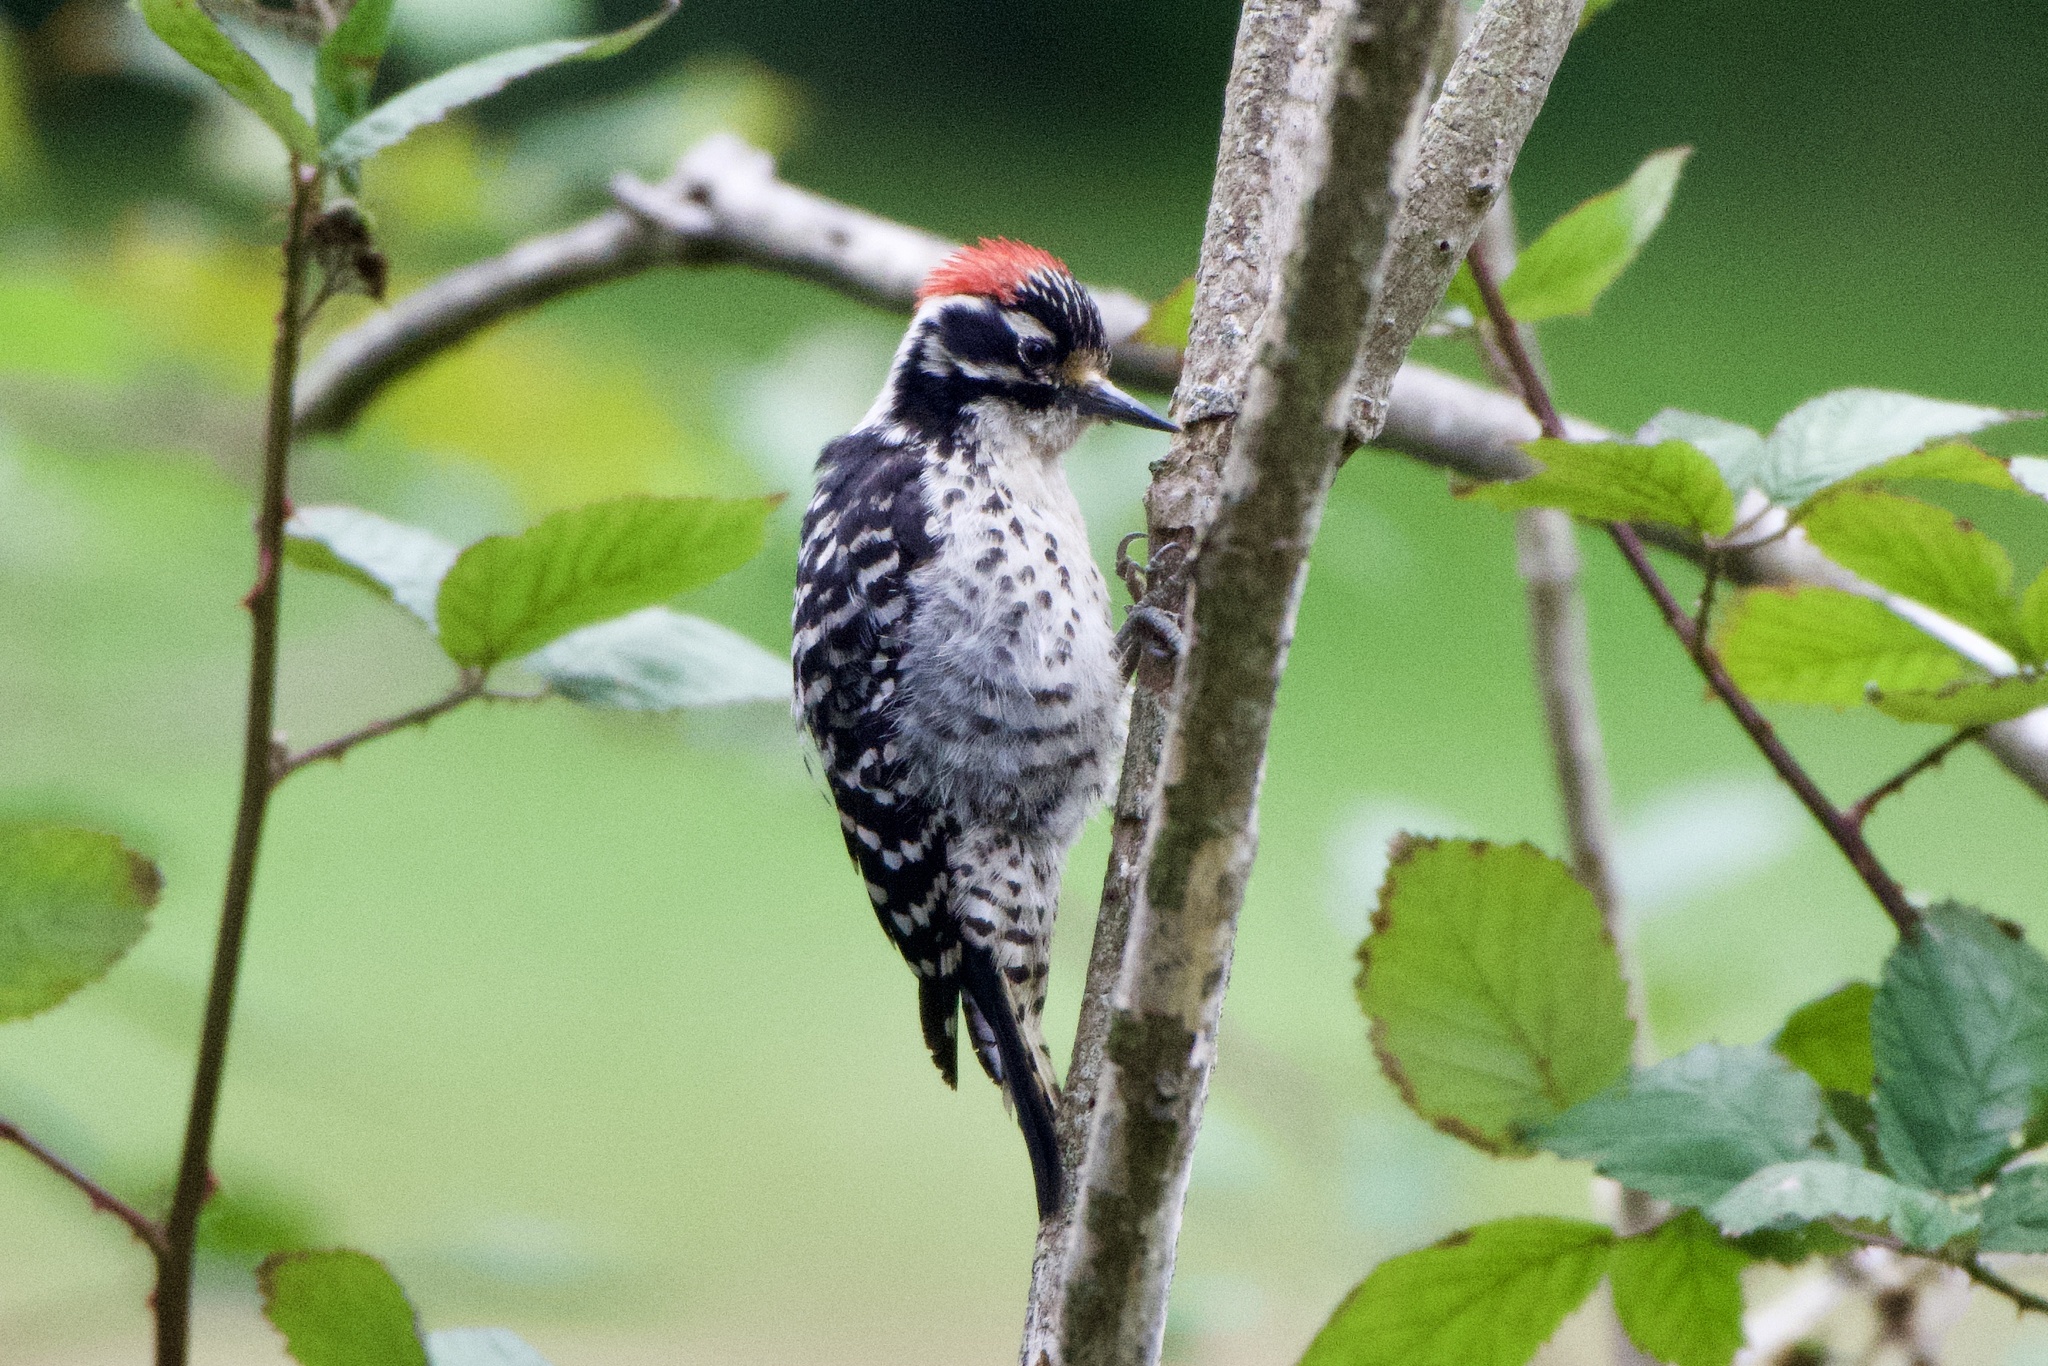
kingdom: Animalia
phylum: Chordata
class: Aves
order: Piciformes
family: Picidae
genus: Dryobates
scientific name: Dryobates nuttallii
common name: Nuttall's woodpecker
